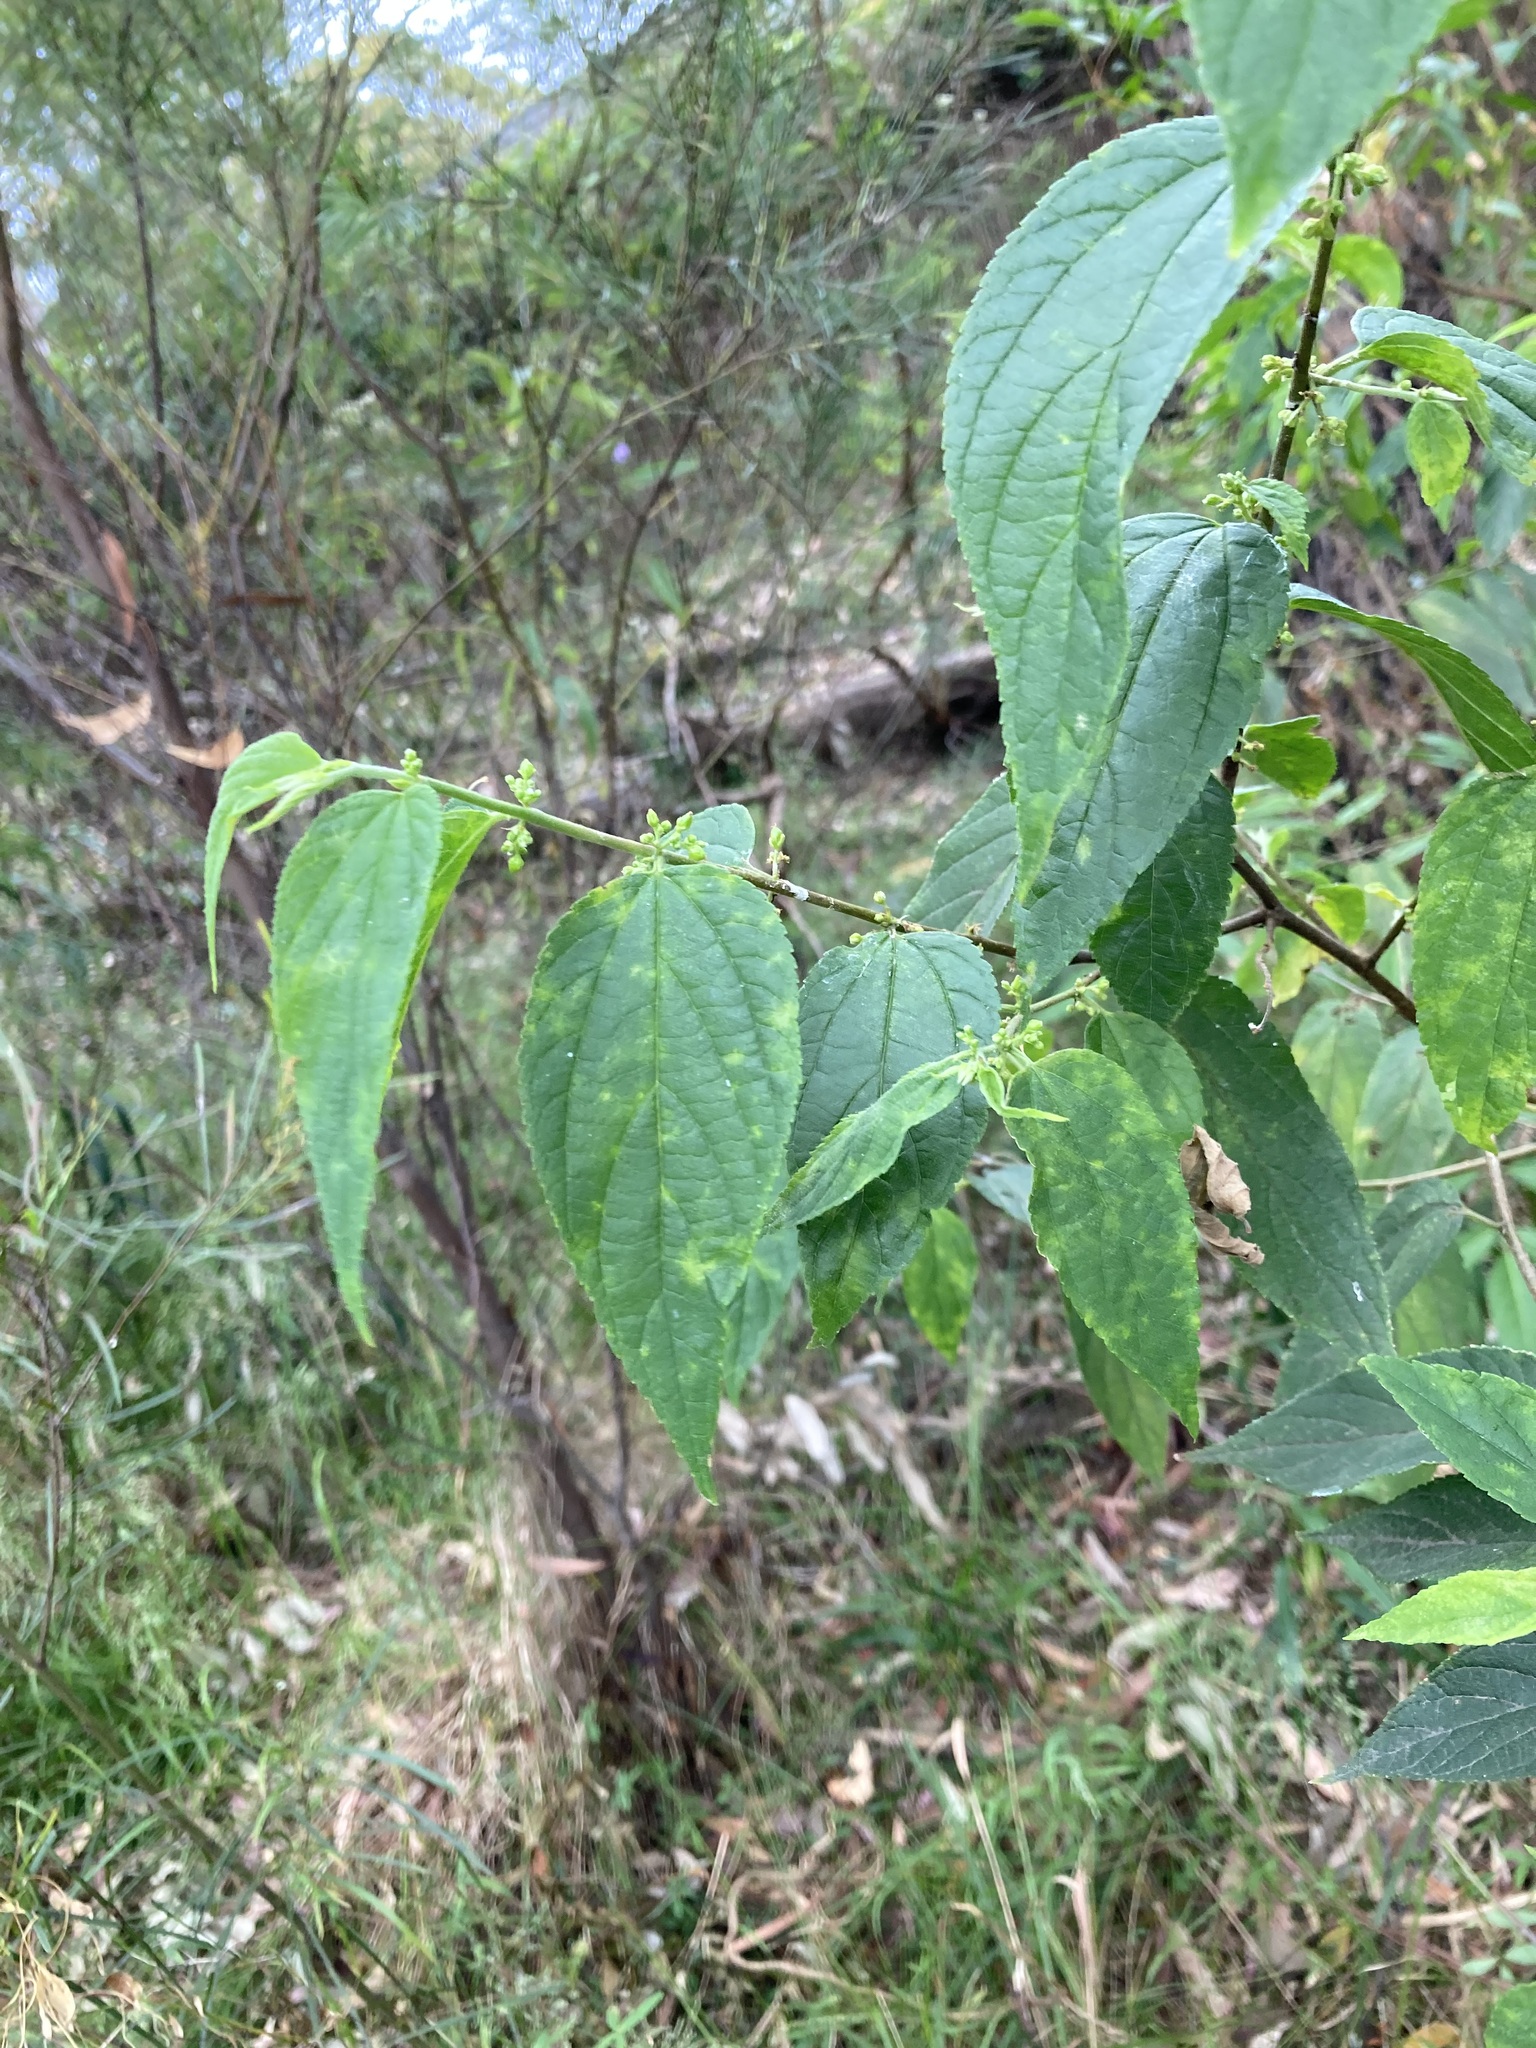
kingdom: Plantae
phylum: Tracheophyta
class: Magnoliopsida
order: Rosales
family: Cannabaceae
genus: Trema
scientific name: Trema tomentosum
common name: Peach-leaf-poisonbush
